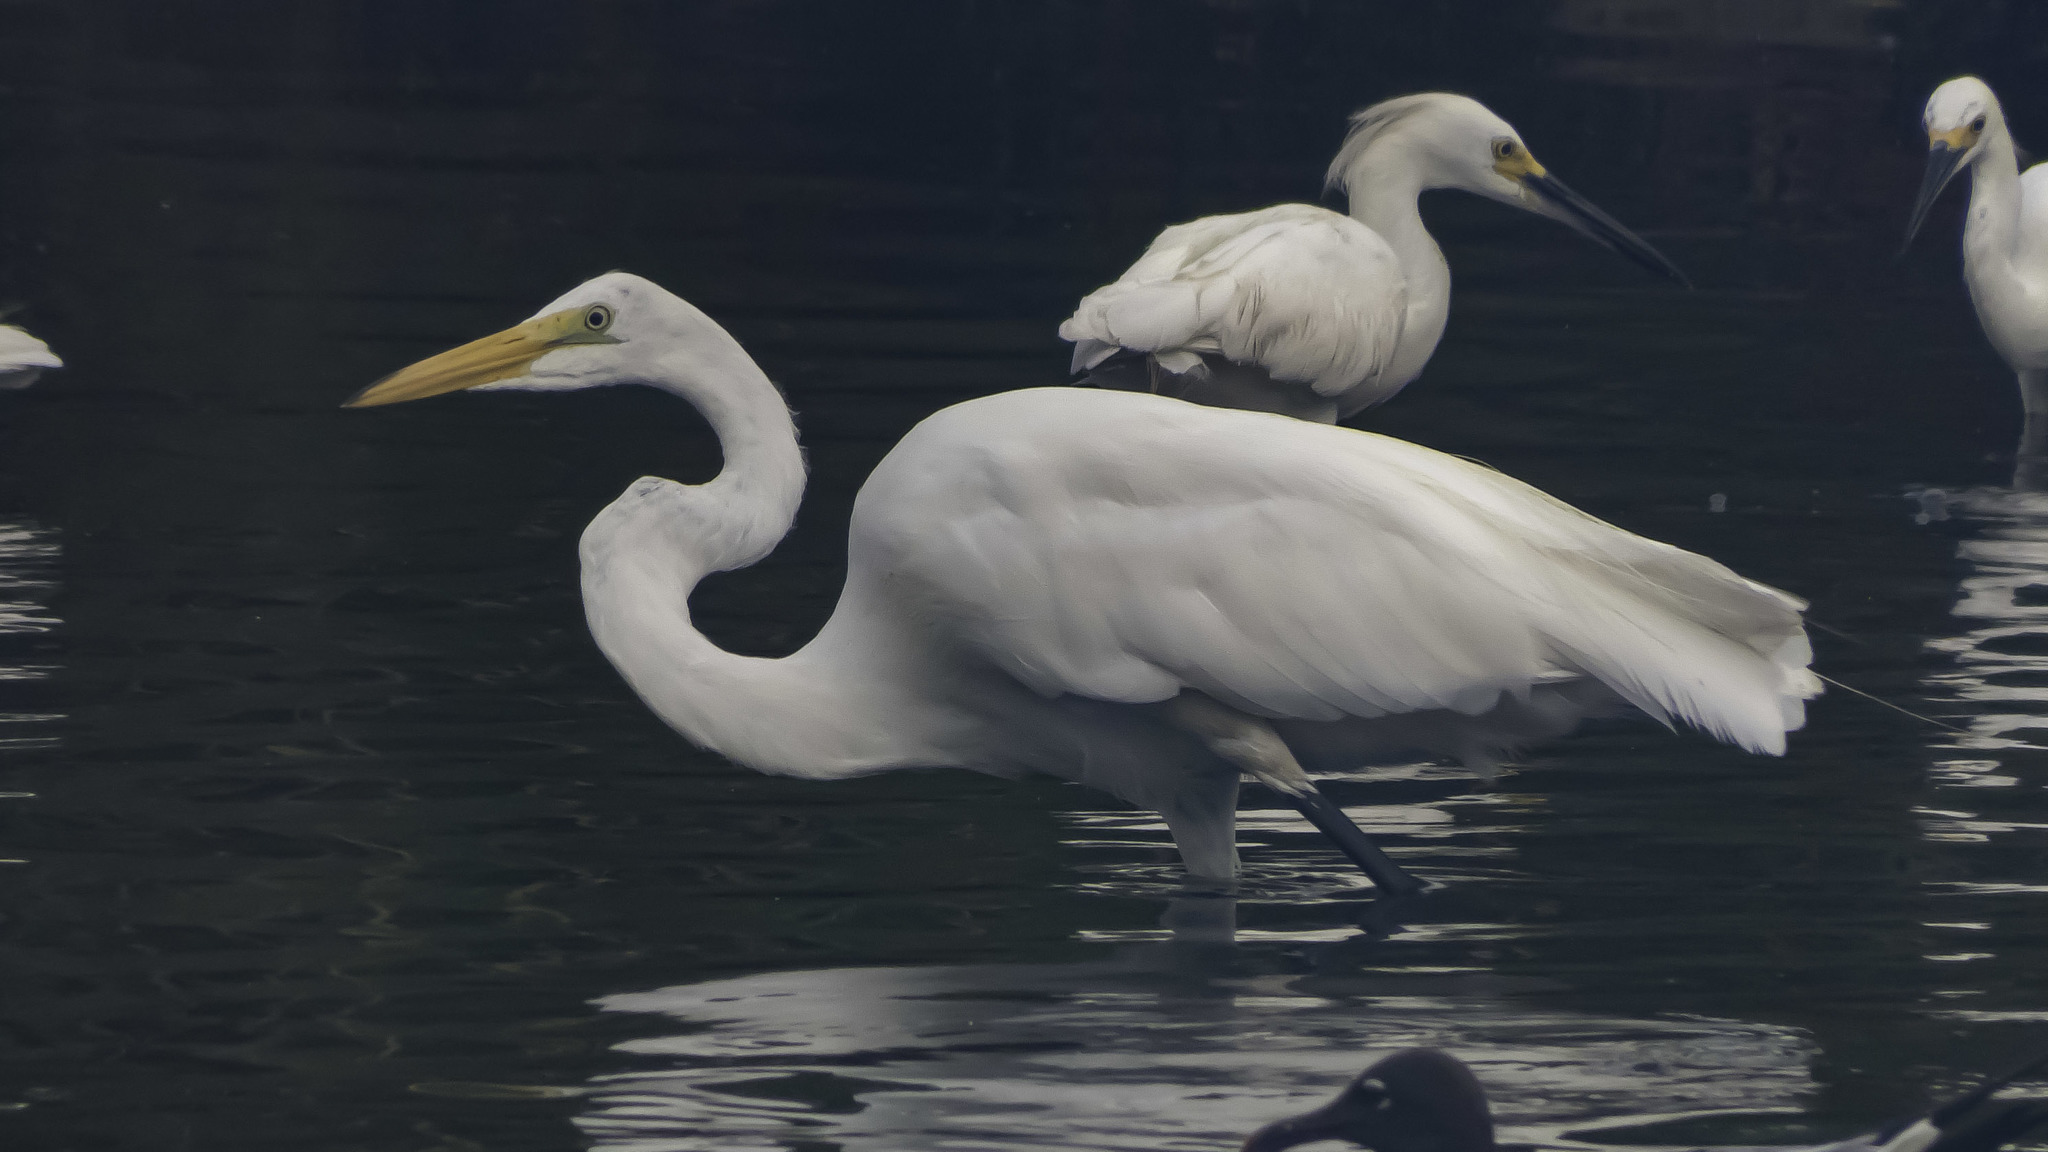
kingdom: Animalia
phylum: Chordata
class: Aves
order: Pelecaniformes
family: Ardeidae
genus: Ardea
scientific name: Ardea alba
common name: Great egret
